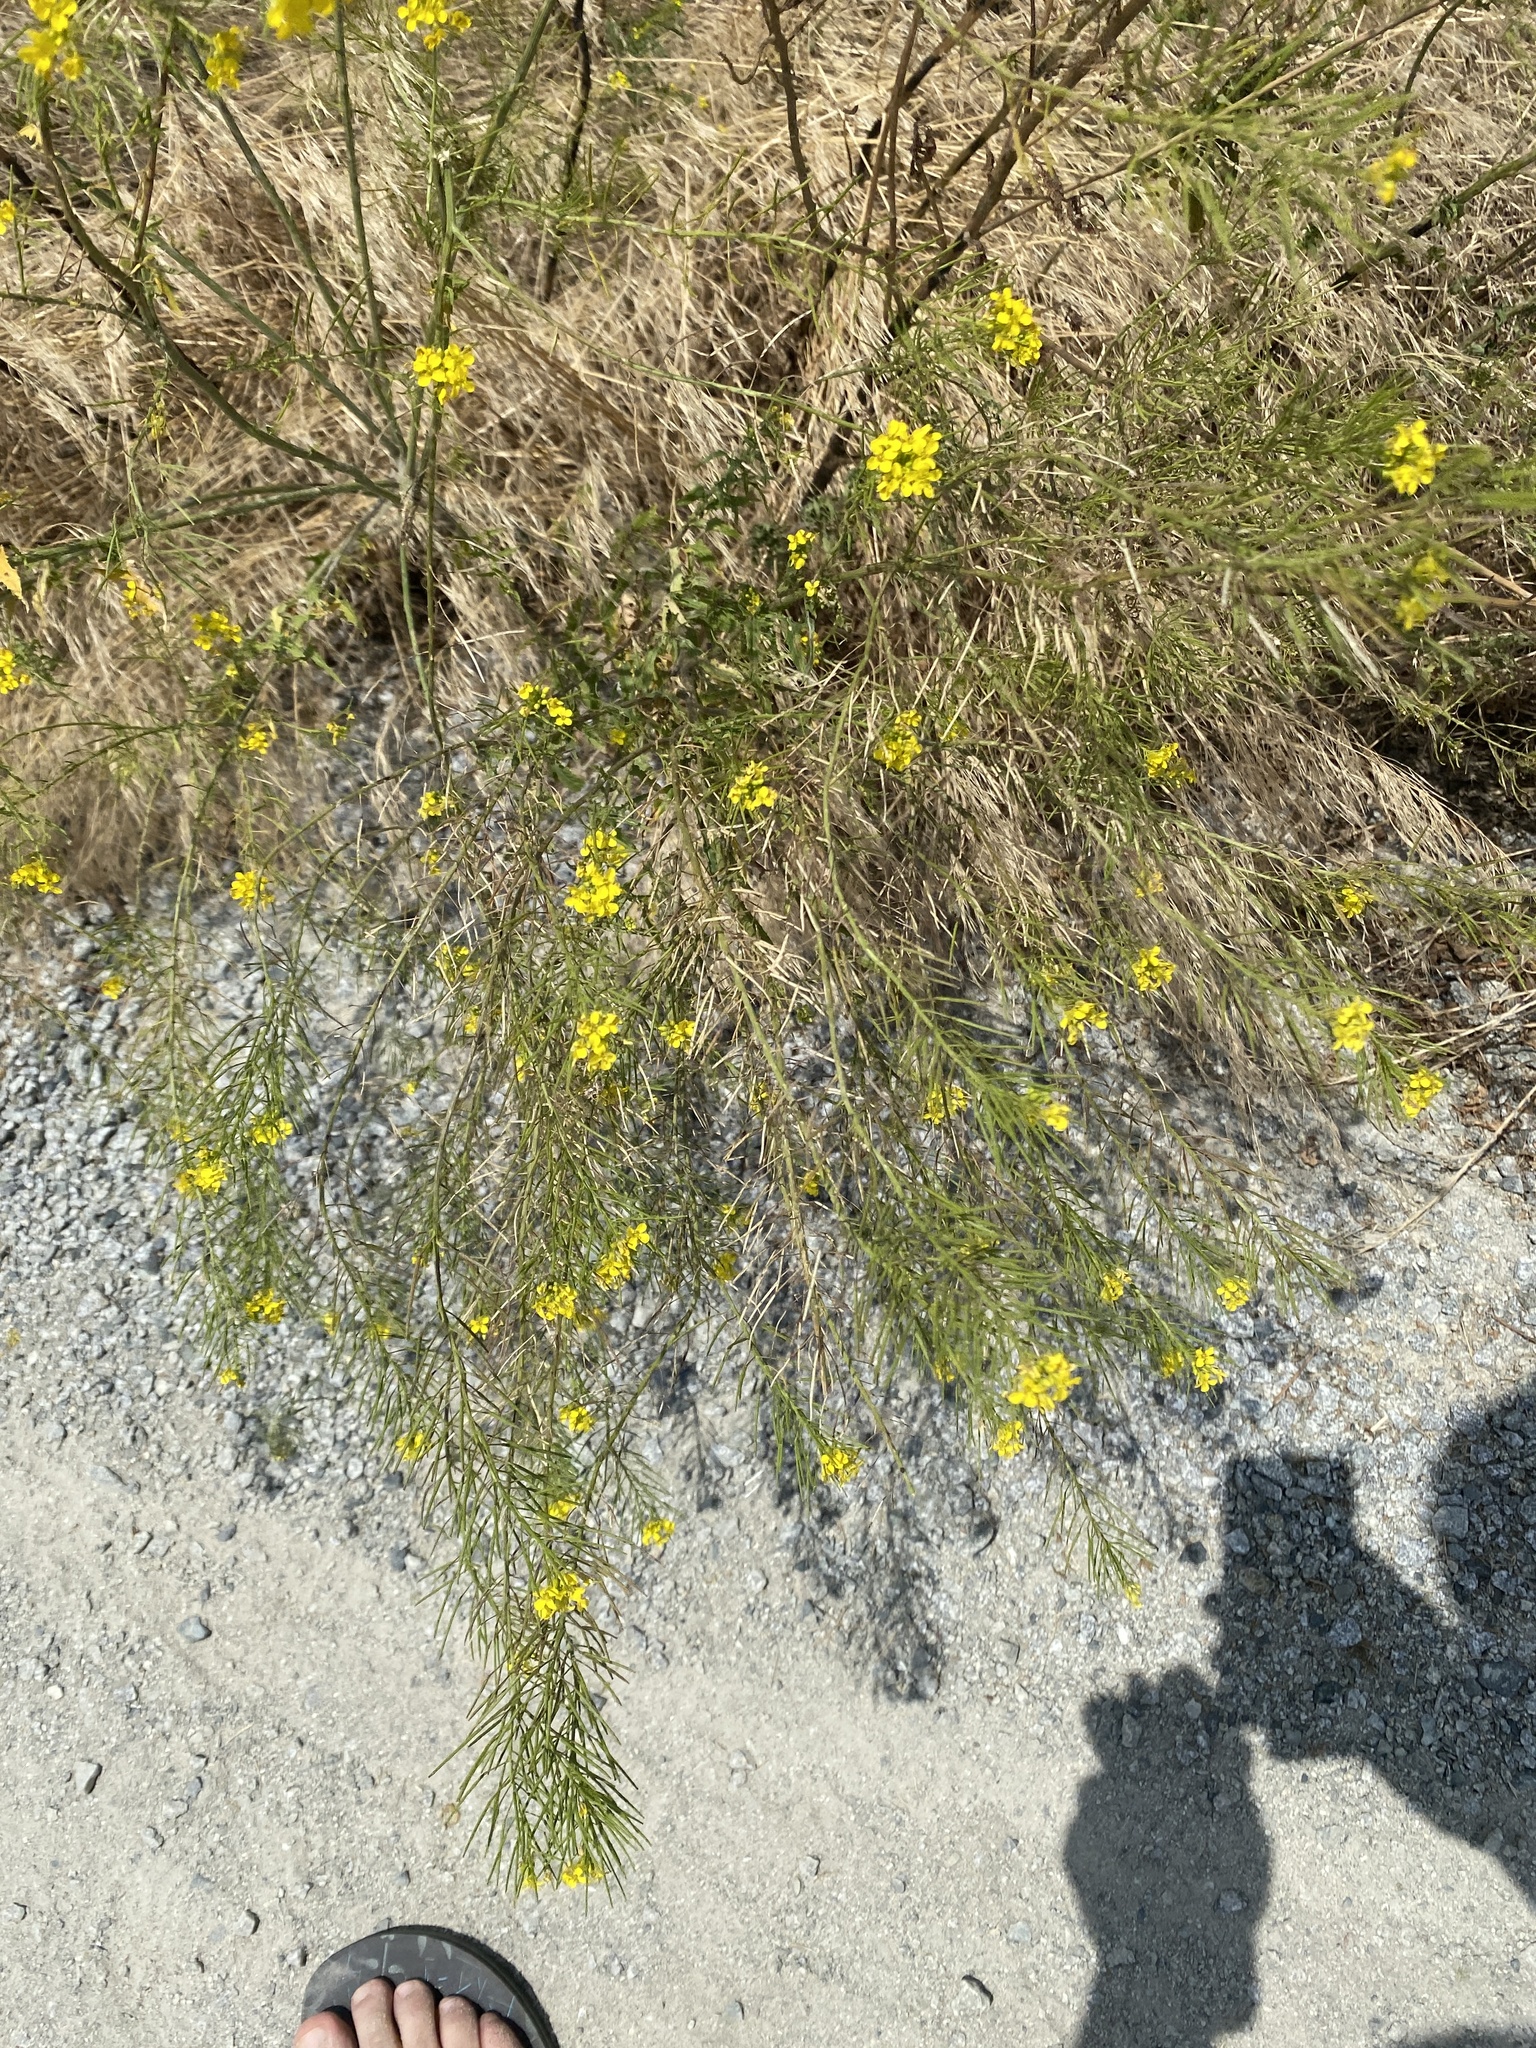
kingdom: Plantae
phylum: Tracheophyta
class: Magnoliopsida
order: Brassicales
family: Brassicaceae
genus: Sisymbrium
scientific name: Sisymbrium loeselii
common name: False london-rocket
